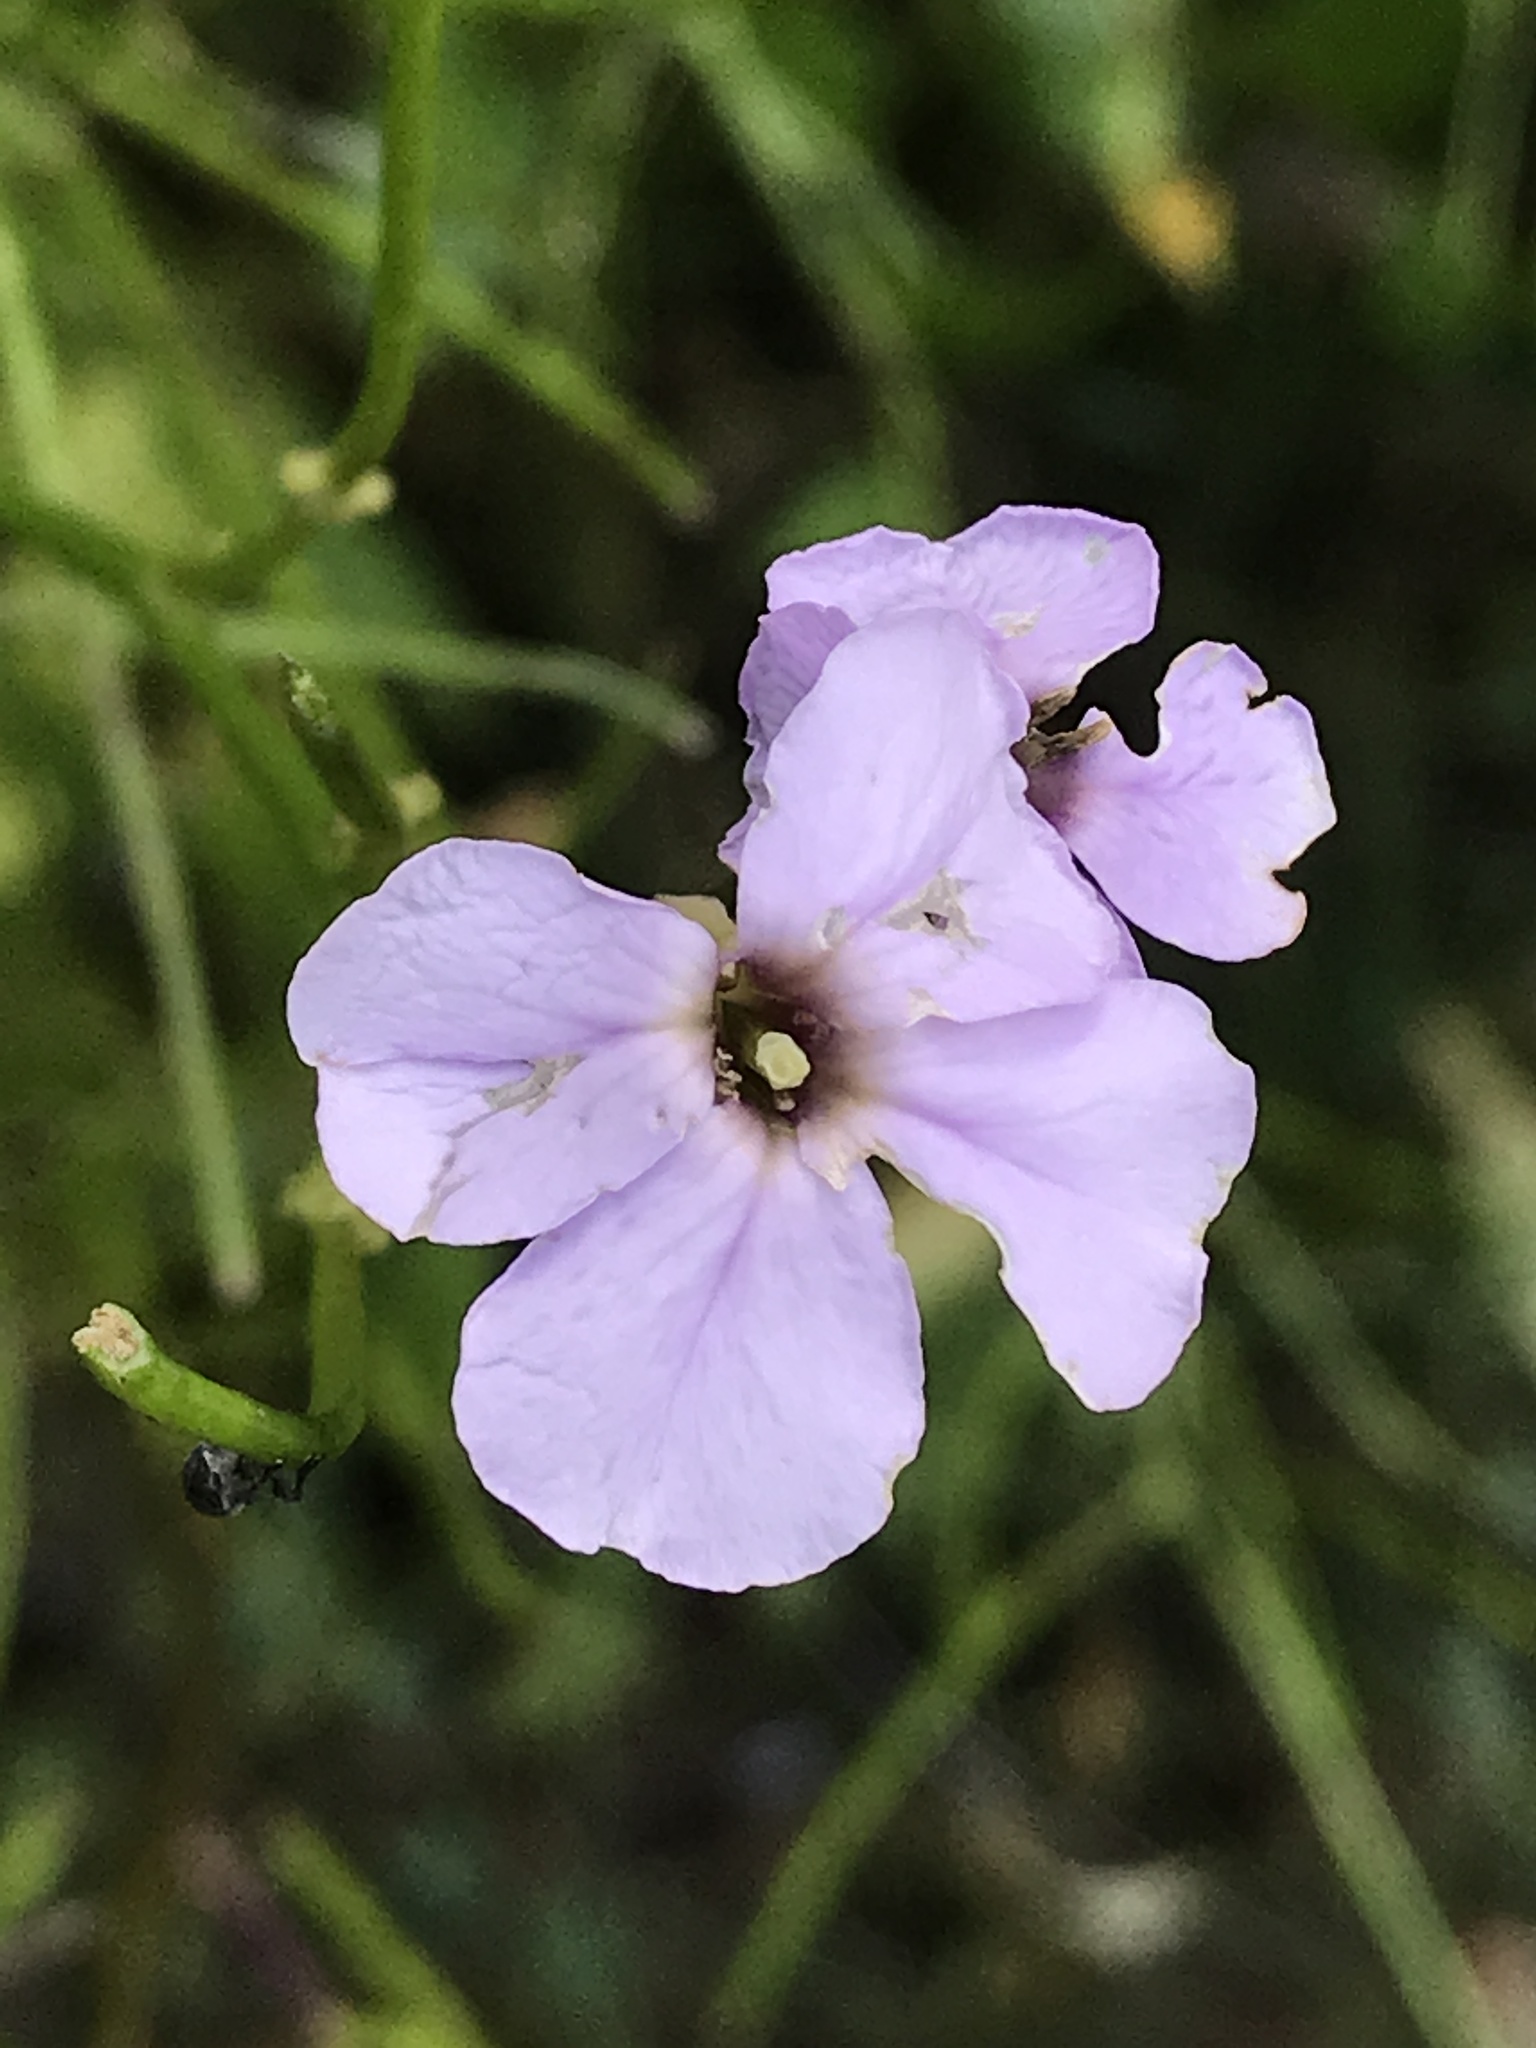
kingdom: Plantae
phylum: Tracheophyta
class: Magnoliopsida
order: Brassicales
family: Brassicaceae
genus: Hesperis
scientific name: Hesperis matronalis
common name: Dame's-violet
